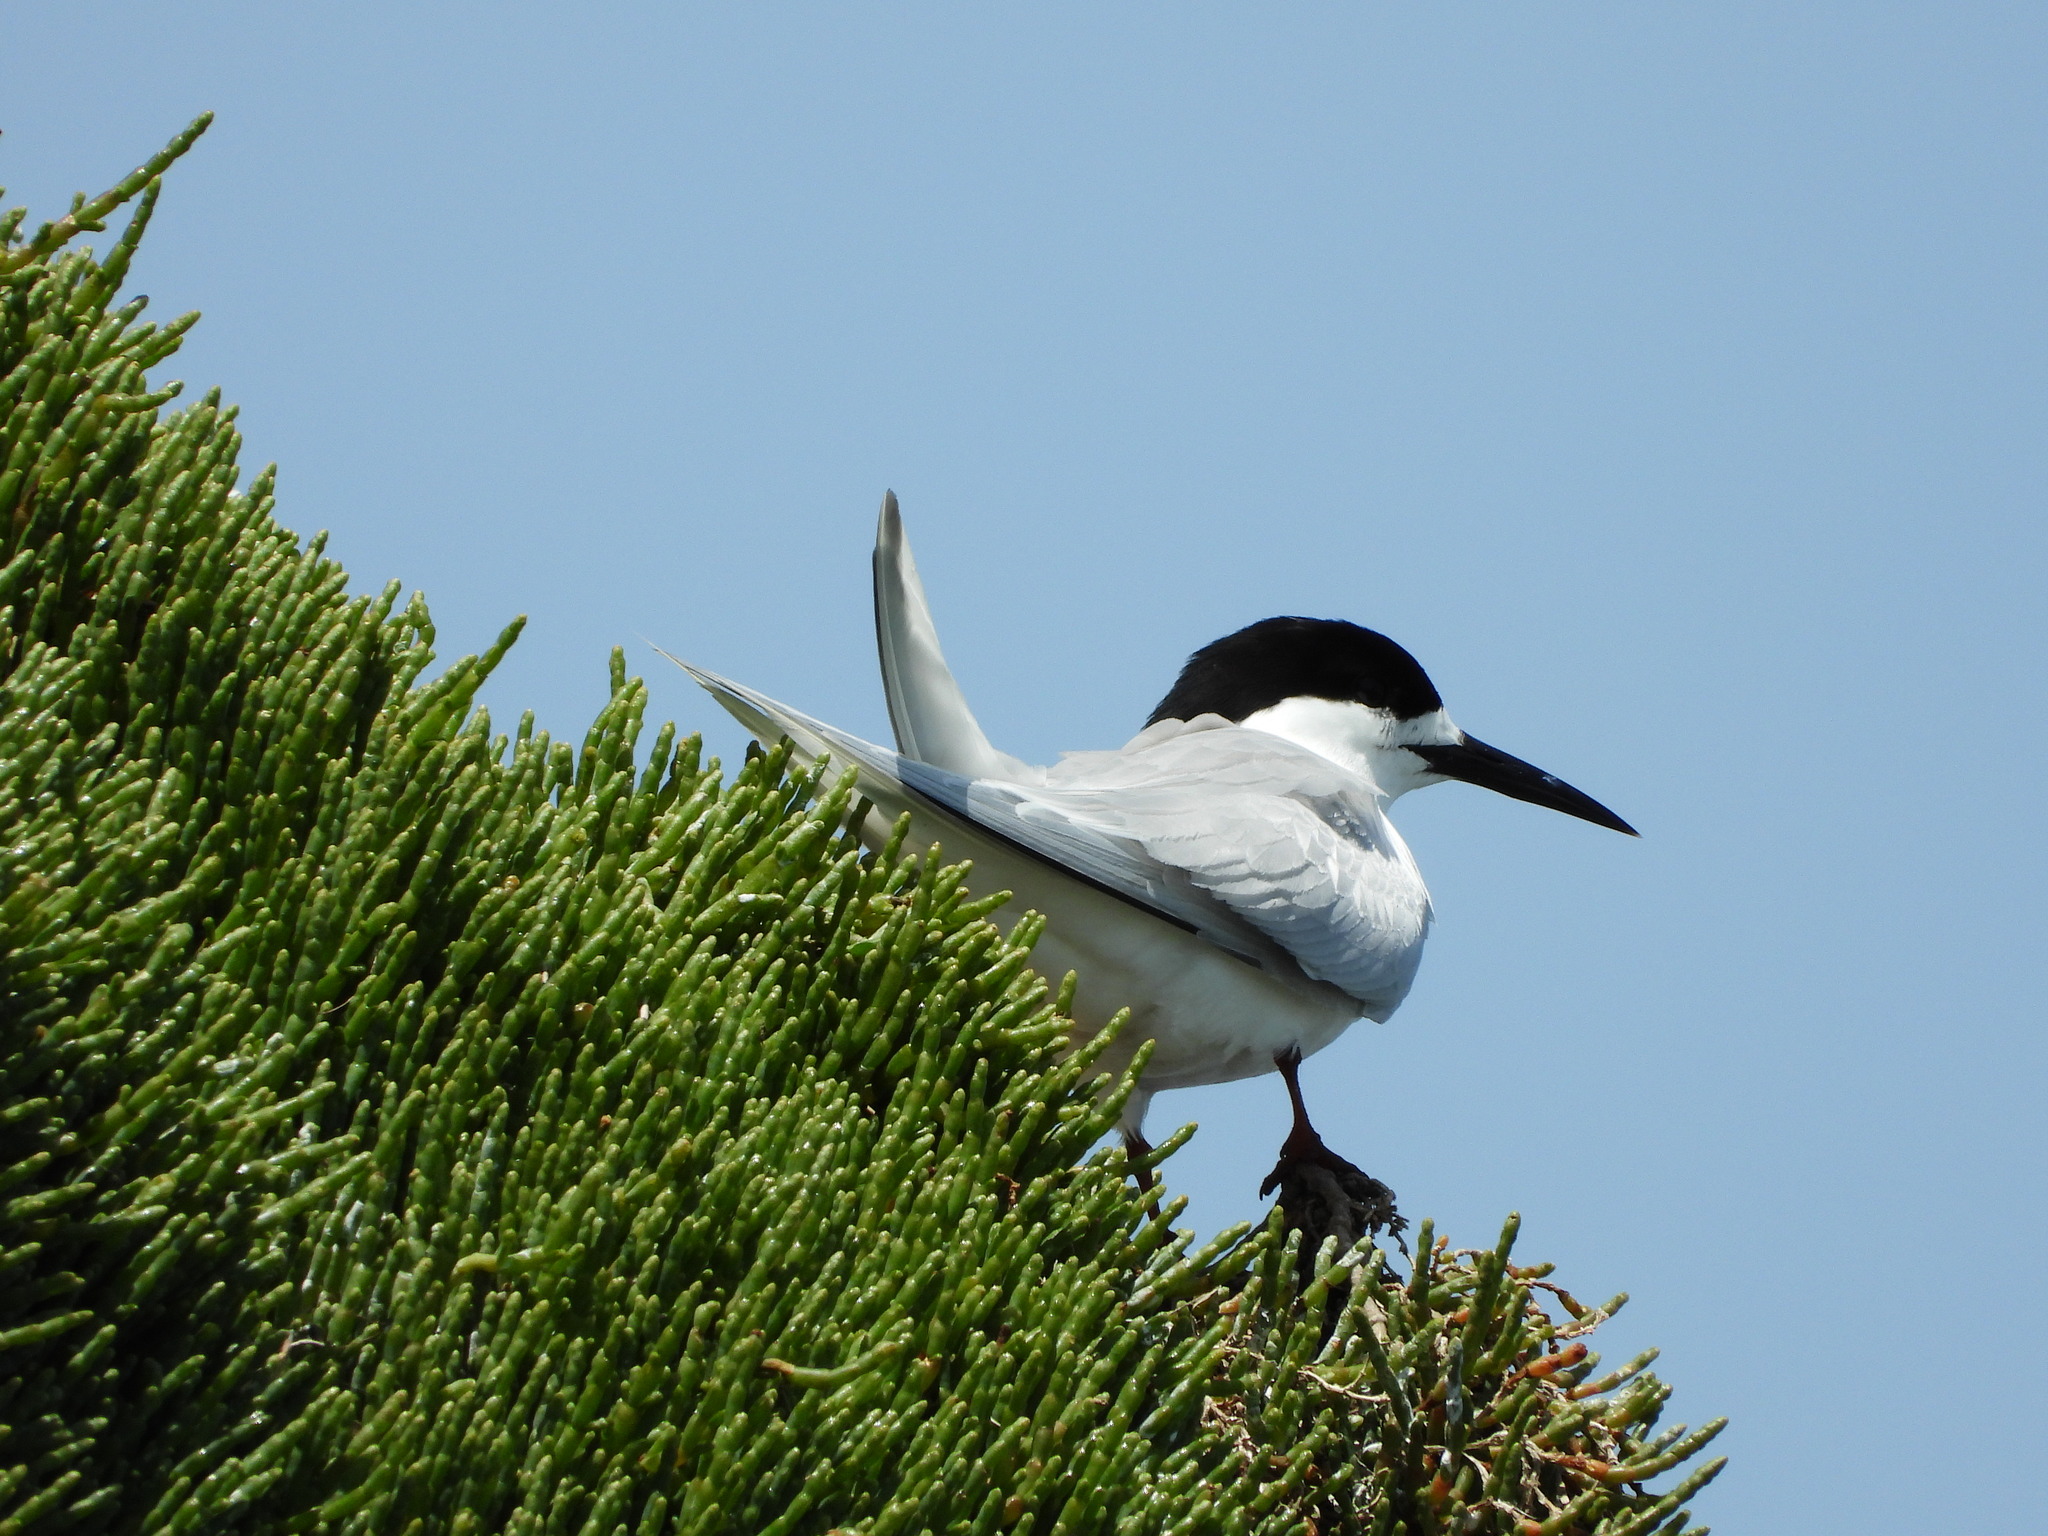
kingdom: Animalia
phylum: Chordata
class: Aves
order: Charadriiformes
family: Laridae
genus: Sterna
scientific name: Sterna striata
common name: White-fronted tern
